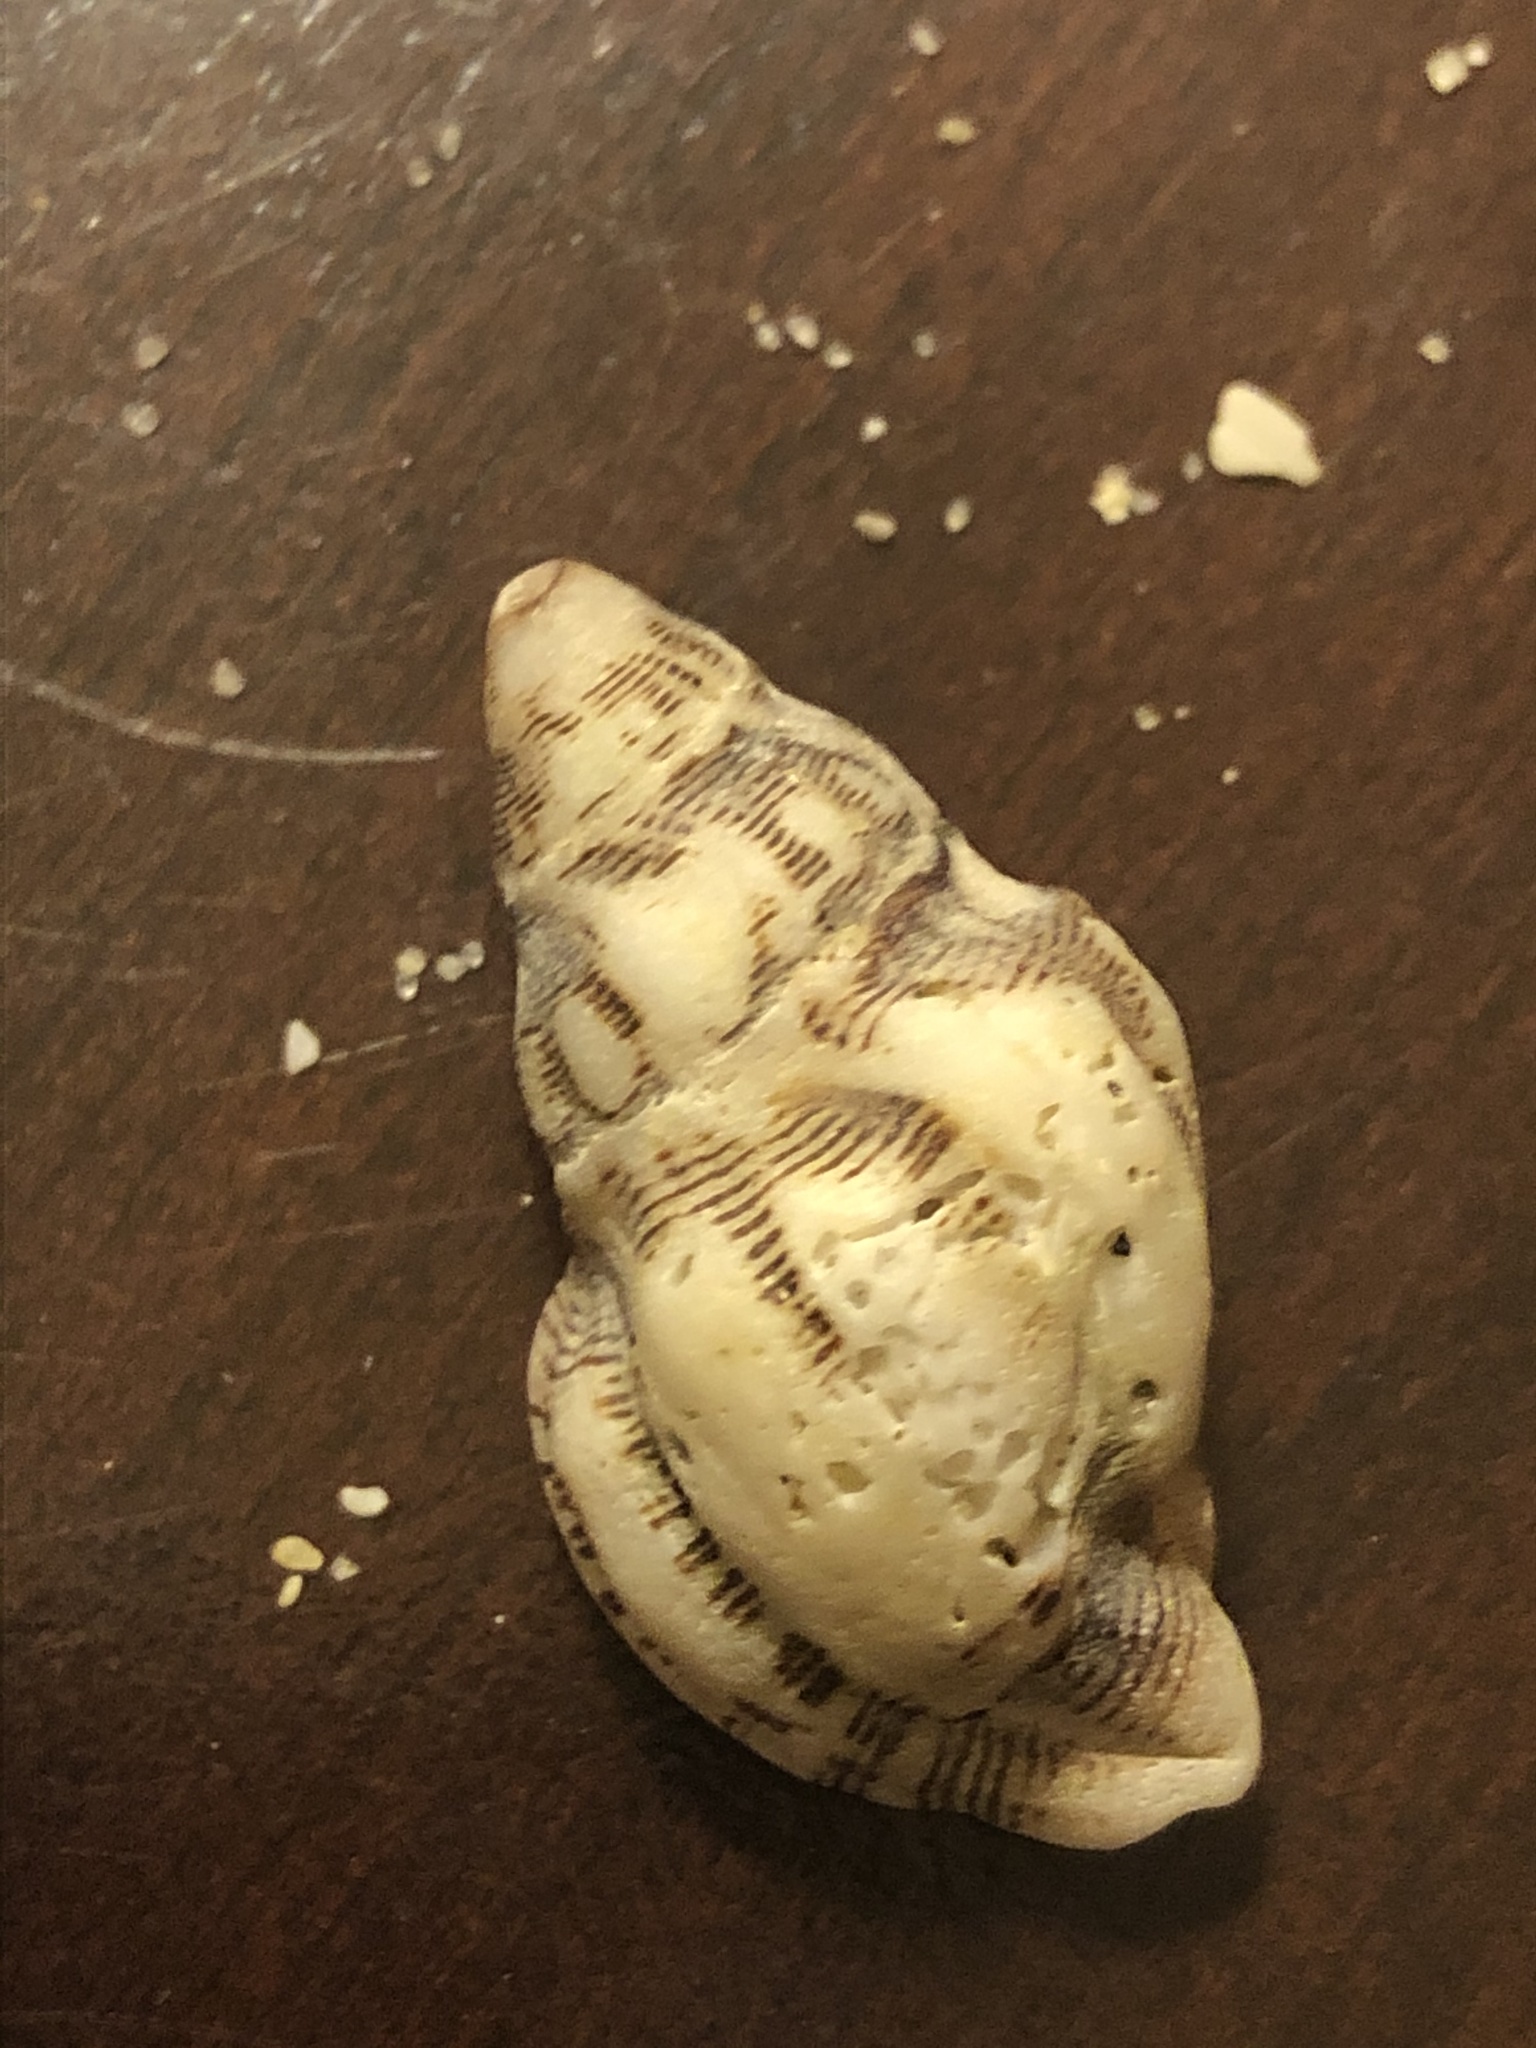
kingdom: Animalia
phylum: Mollusca
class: Gastropoda
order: Neogastropoda
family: Muricidae
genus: Roperia
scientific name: Roperia poulsoni
